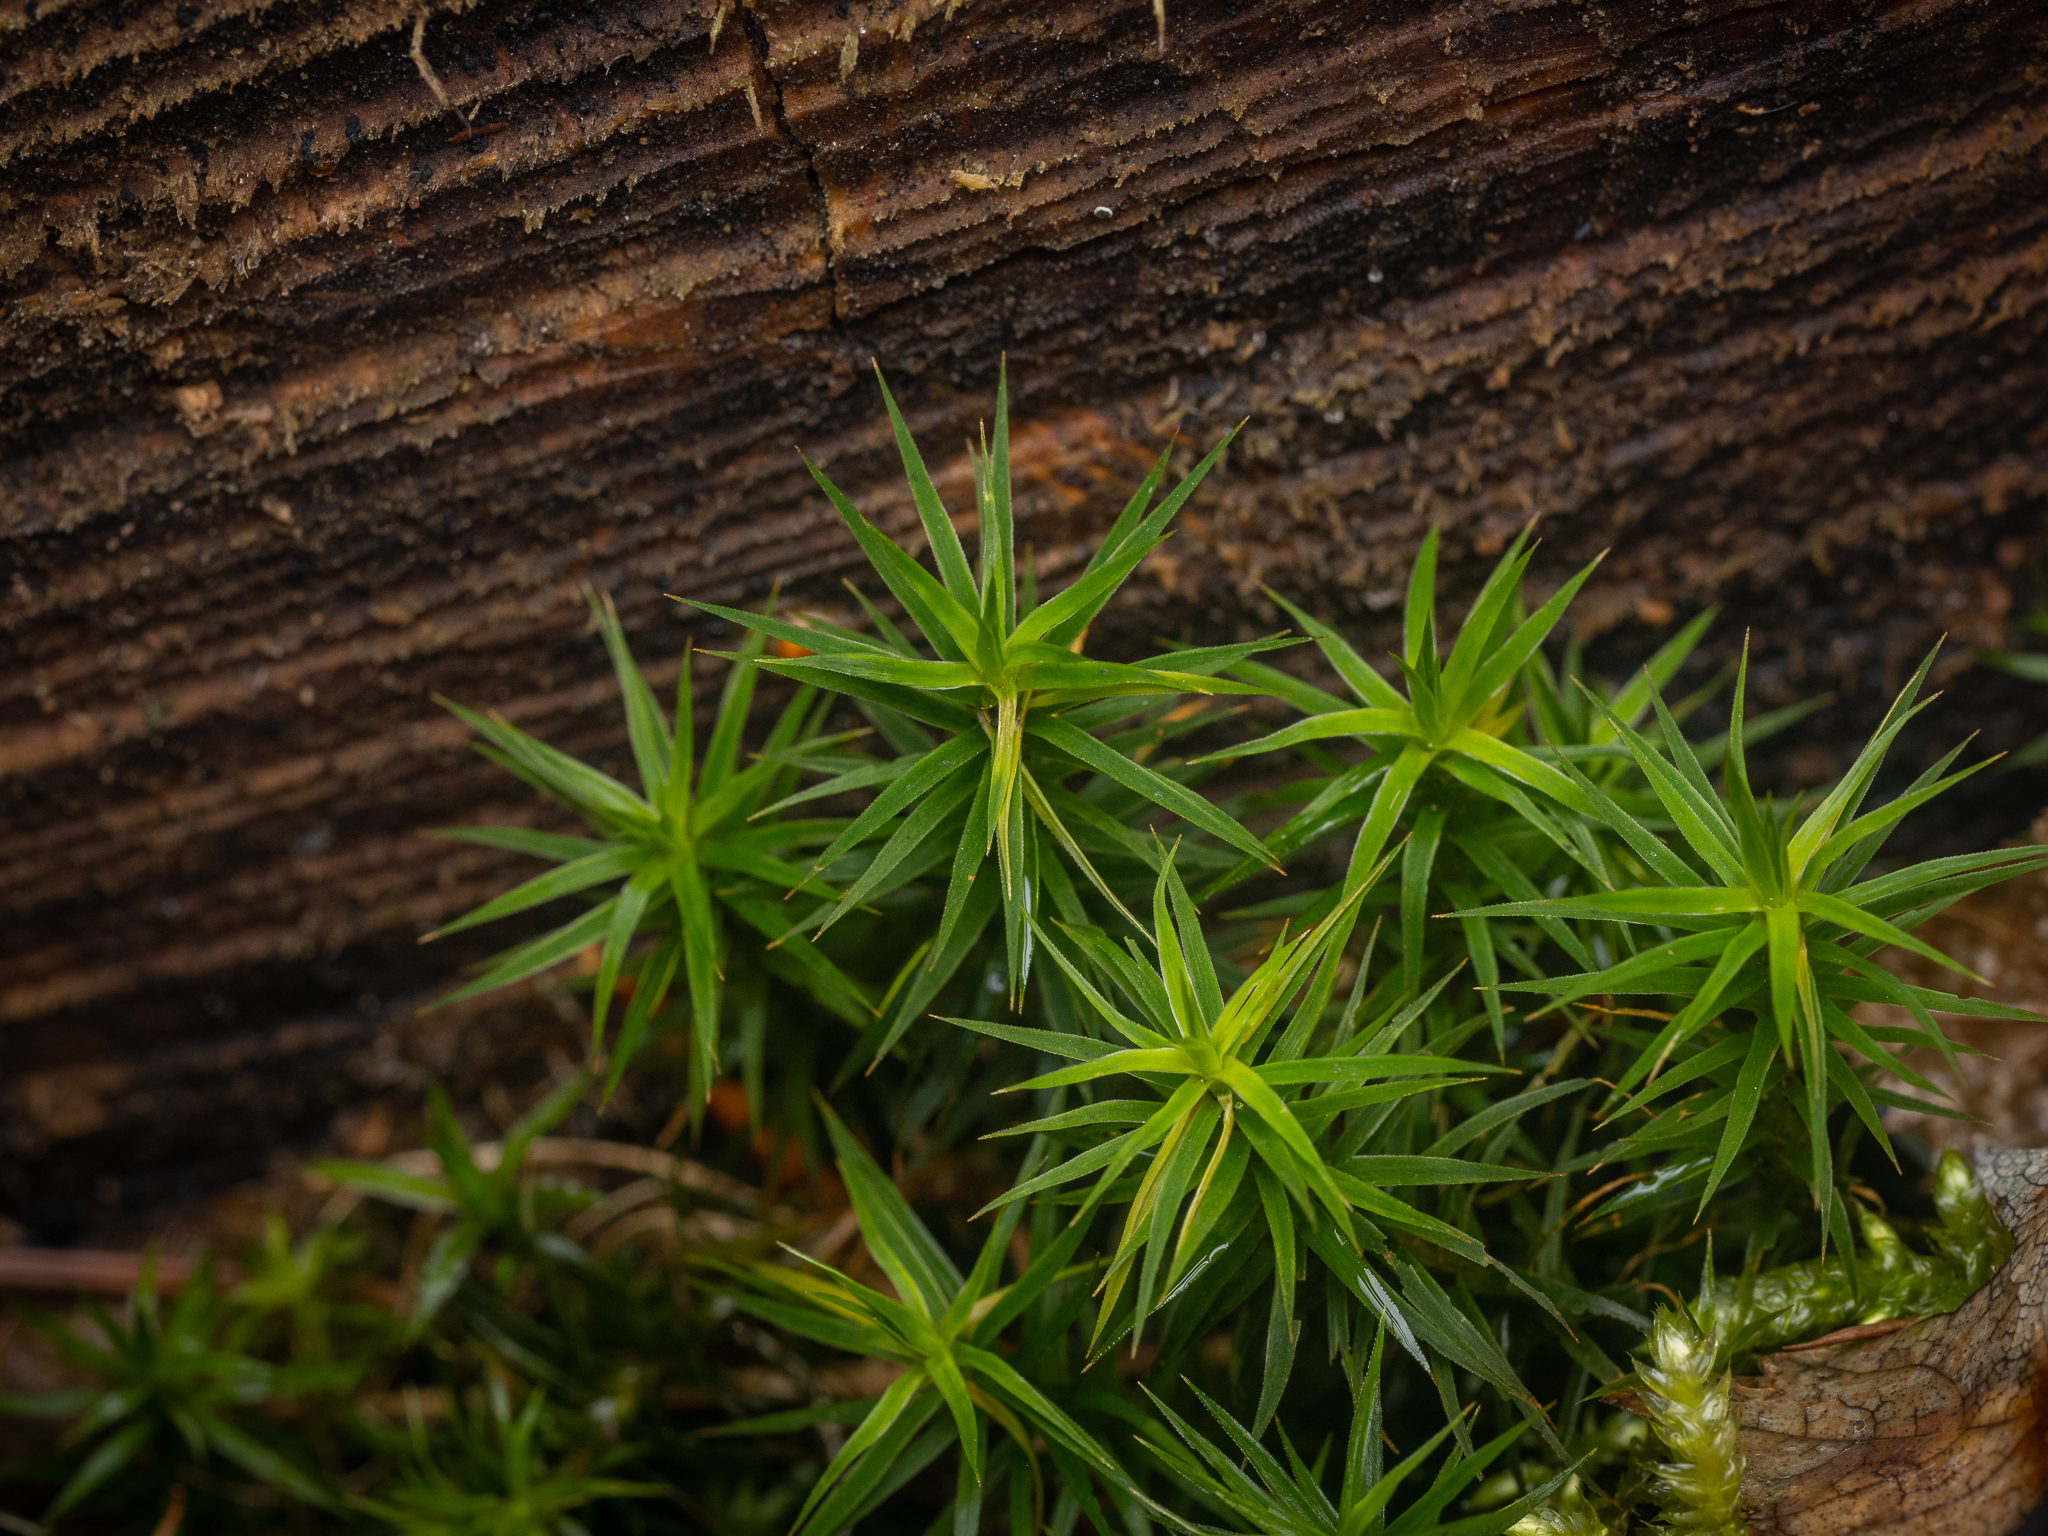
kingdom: Plantae
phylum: Bryophyta
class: Polytrichopsida
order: Polytrichales
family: Polytrichaceae
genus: Polytrichum
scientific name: Polytrichum formosum
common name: Bank haircap moss
